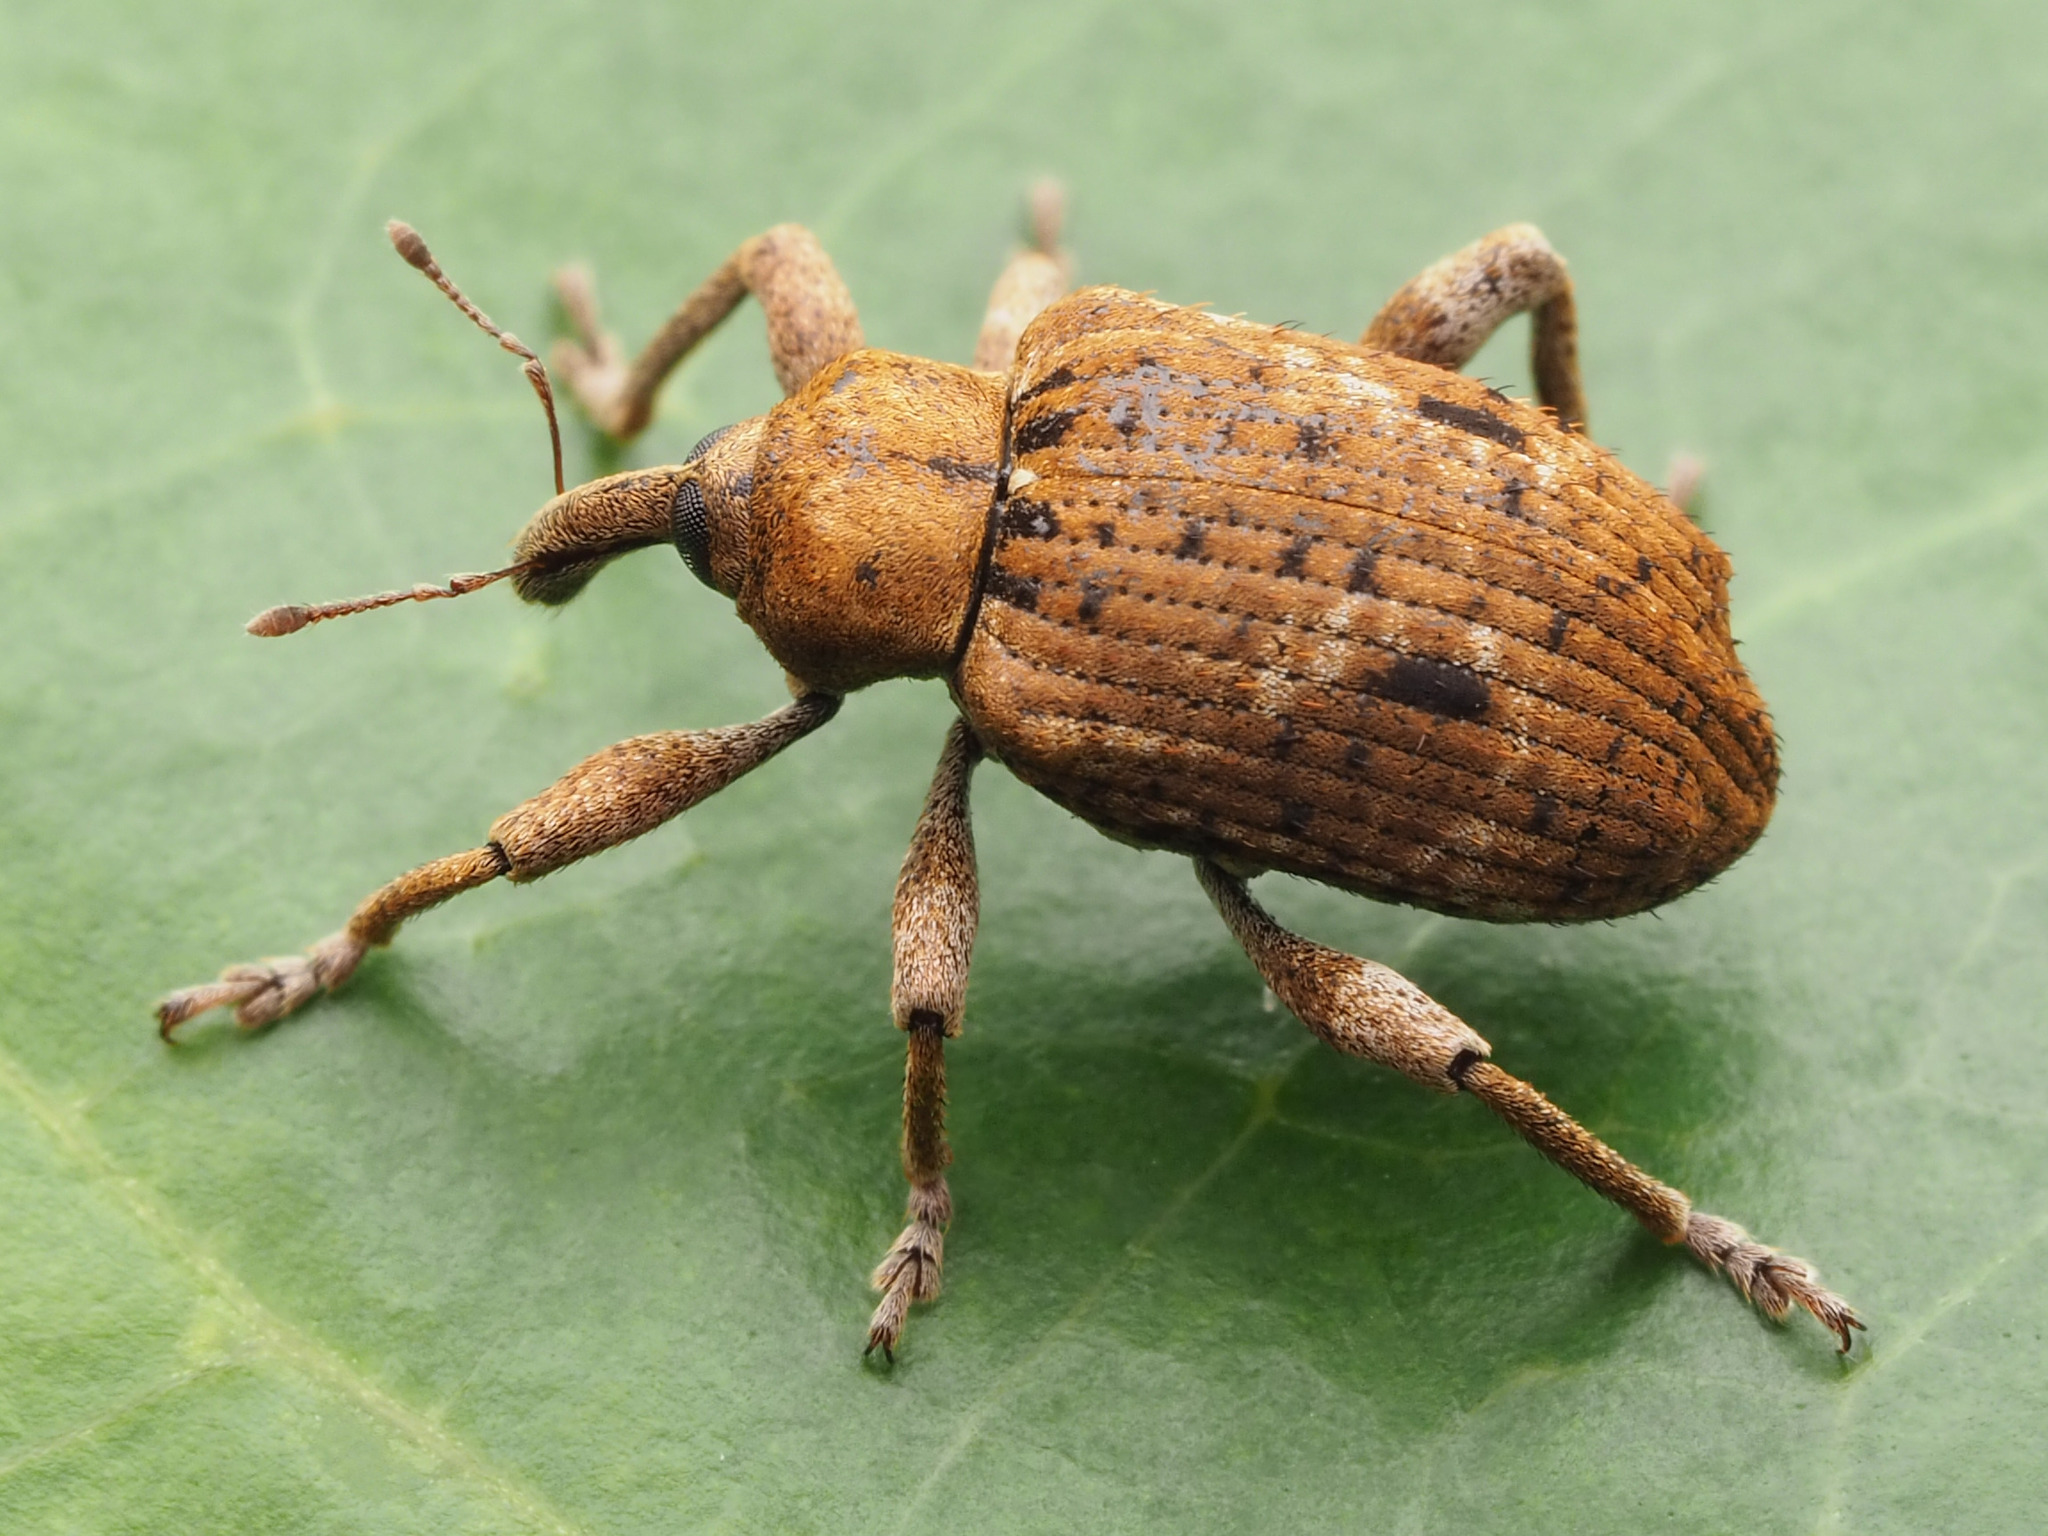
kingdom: Animalia
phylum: Arthropoda
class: Insecta
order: Coleoptera
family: Curculionidae
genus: Phelypera
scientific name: Phelypera
